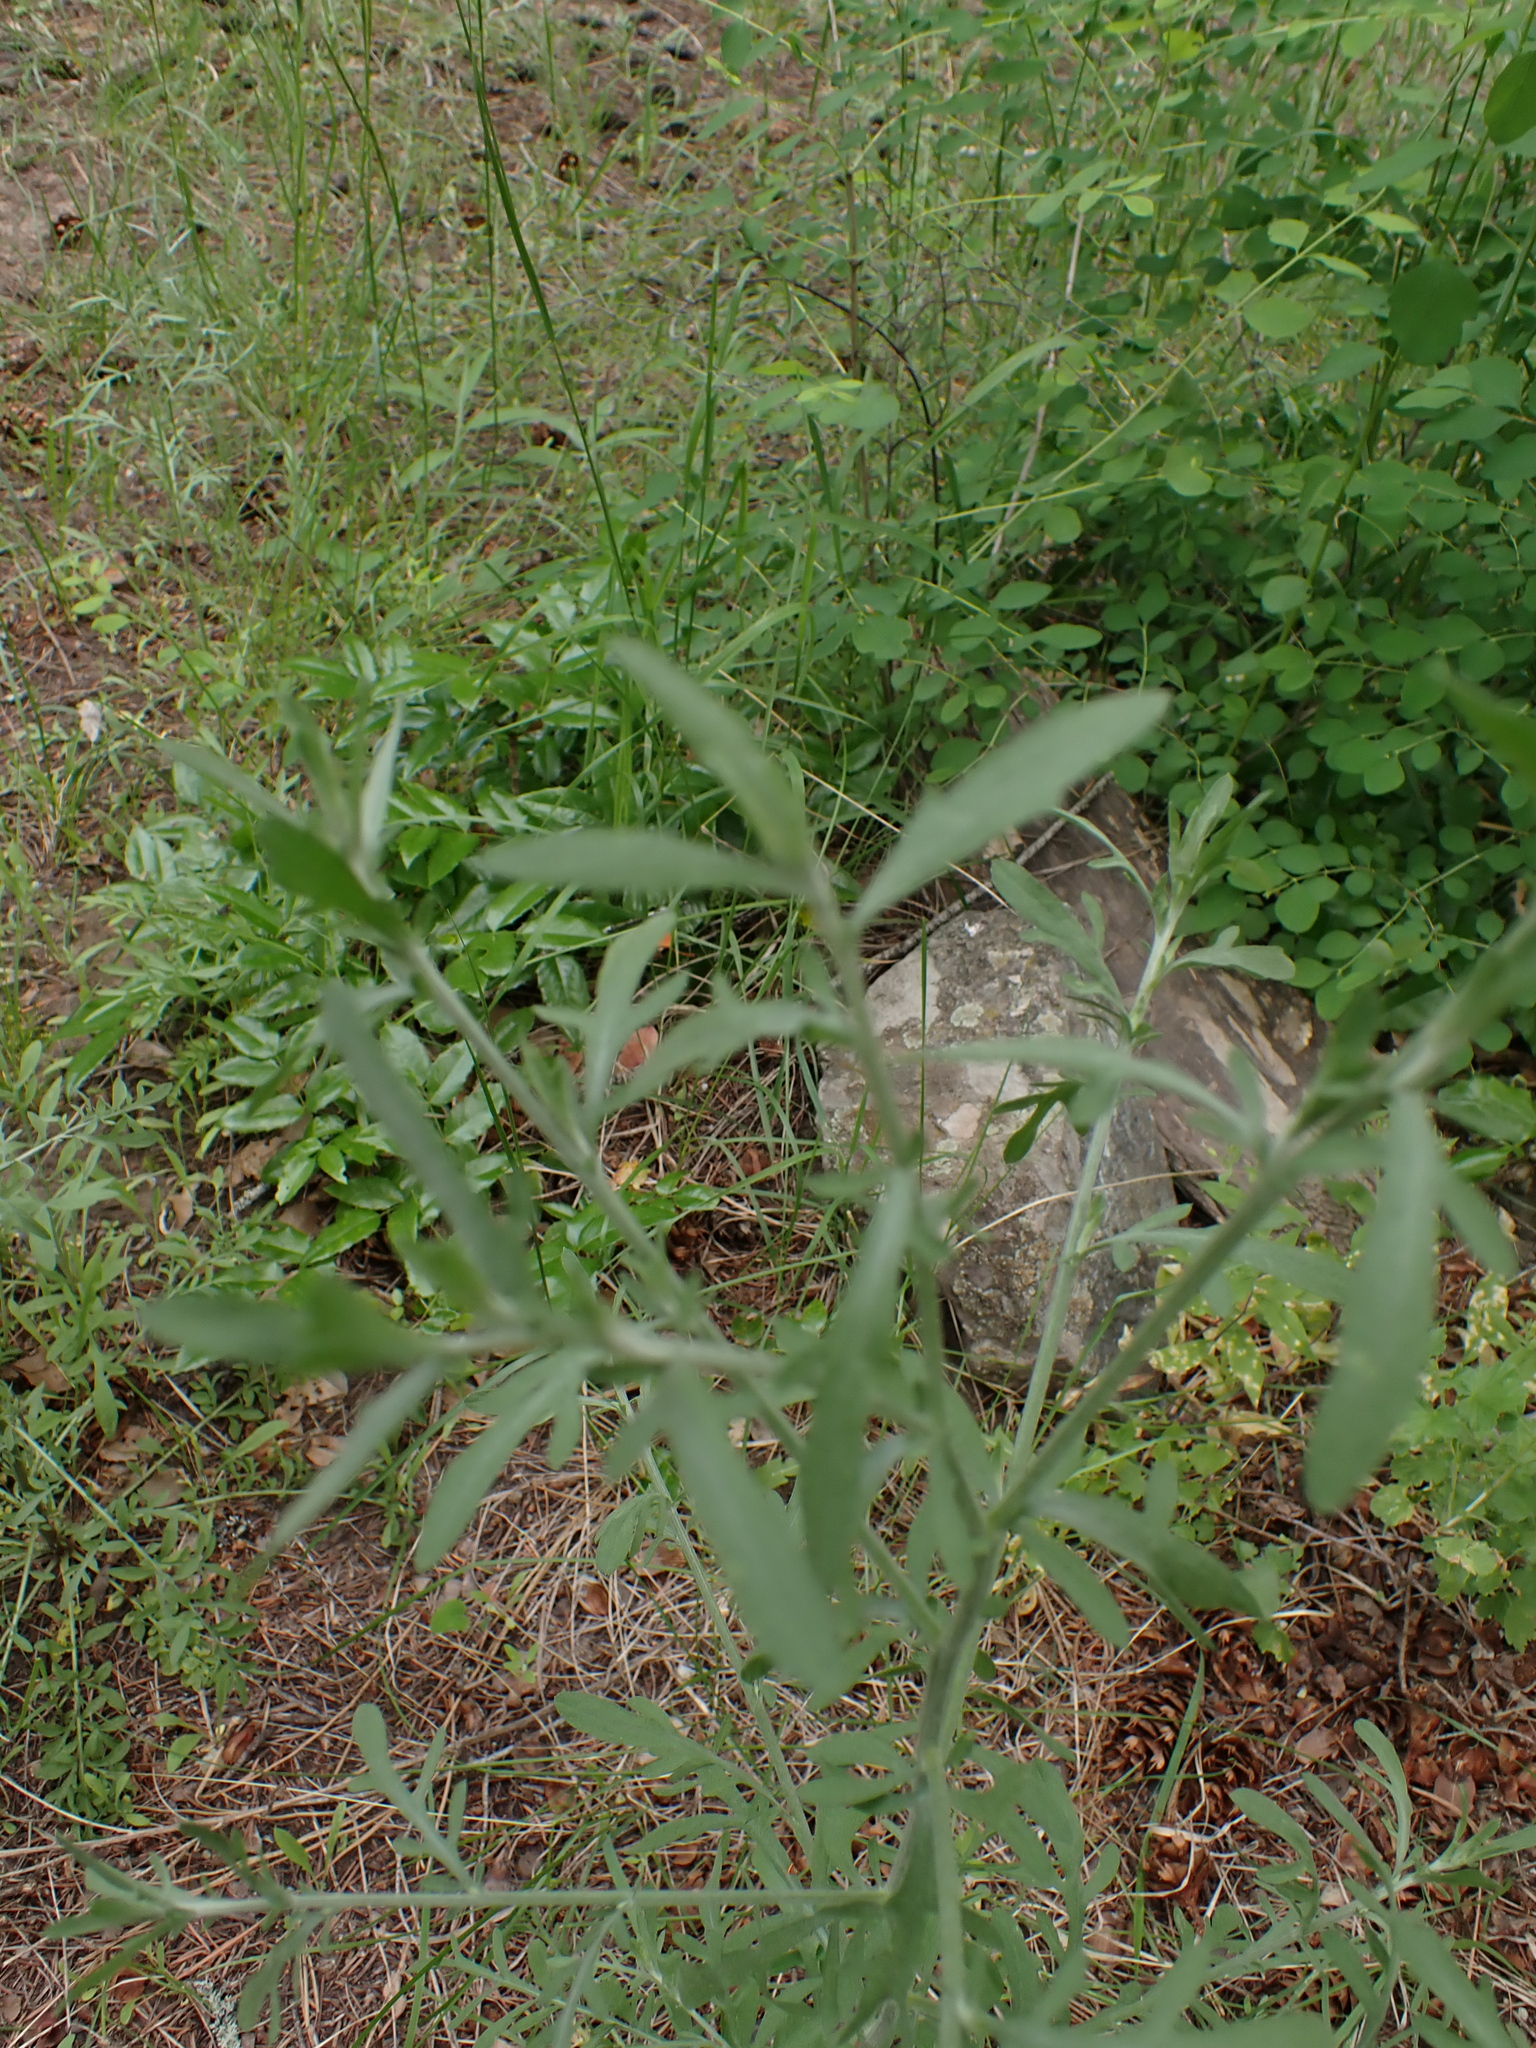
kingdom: Plantae
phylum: Tracheophyta
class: Magnoliopsida
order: Asterales
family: Asteraceae
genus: Centaurea
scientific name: Centaurea stoebe
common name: Spotted knapweed
